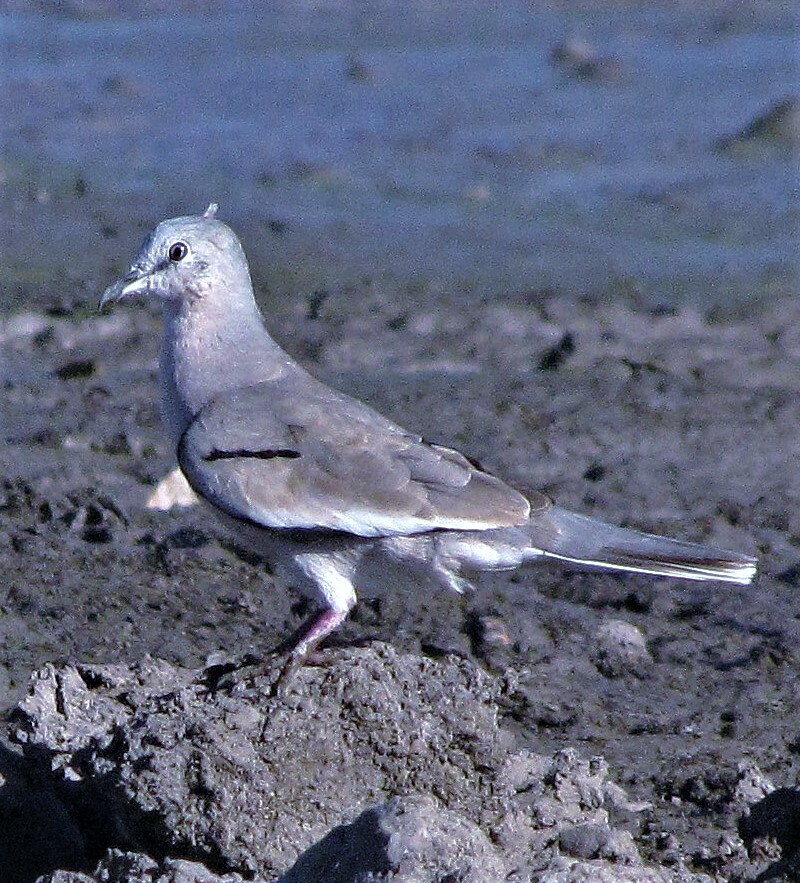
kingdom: Animalia
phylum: Chordata
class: Aves
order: Columbiformes
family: Columbidae
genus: Columbina
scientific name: Columbina picui
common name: Picui ground dove
